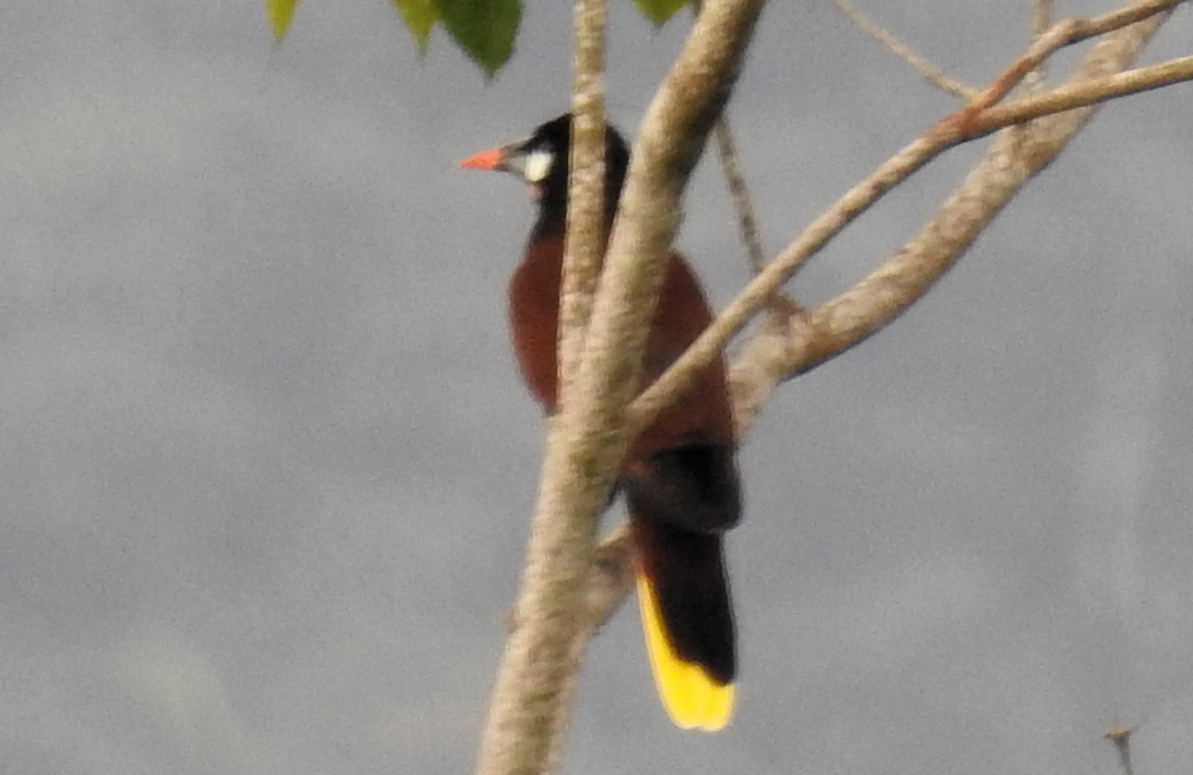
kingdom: Animalia
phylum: Chordata
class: Aves
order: Passeriformes
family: Icteridae
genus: Psarocolius
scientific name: Psarocolius montezuma
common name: Montezuma oropendola
